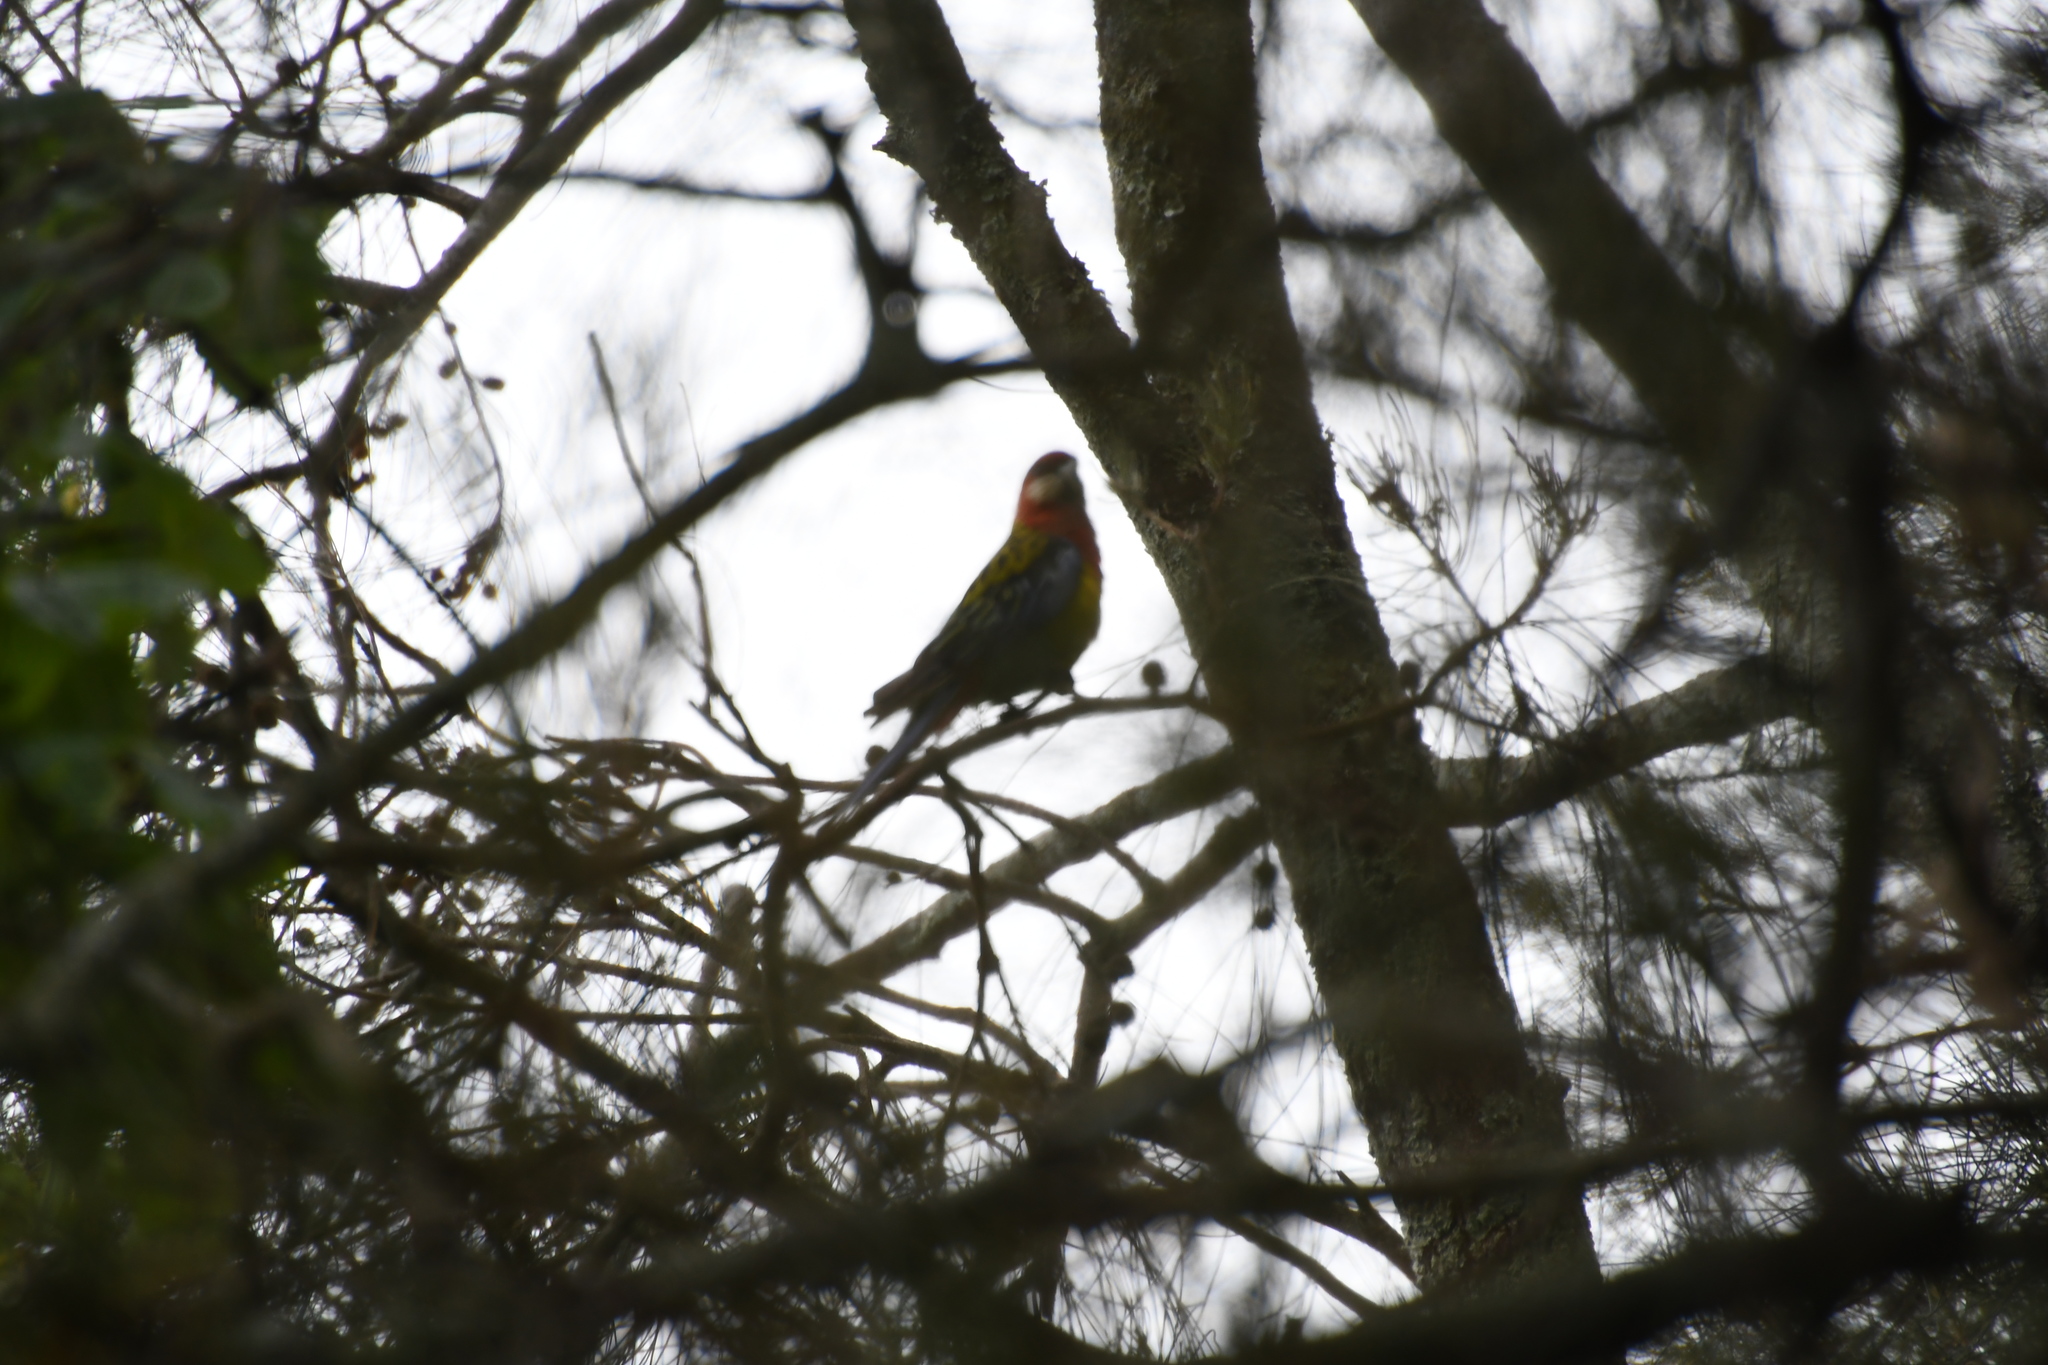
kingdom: Animalia
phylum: Chordata
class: Aves
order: Psittaciformes
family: Psittacidae
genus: Platycercus
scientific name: Platycercus eximius
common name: Eastern rosella
